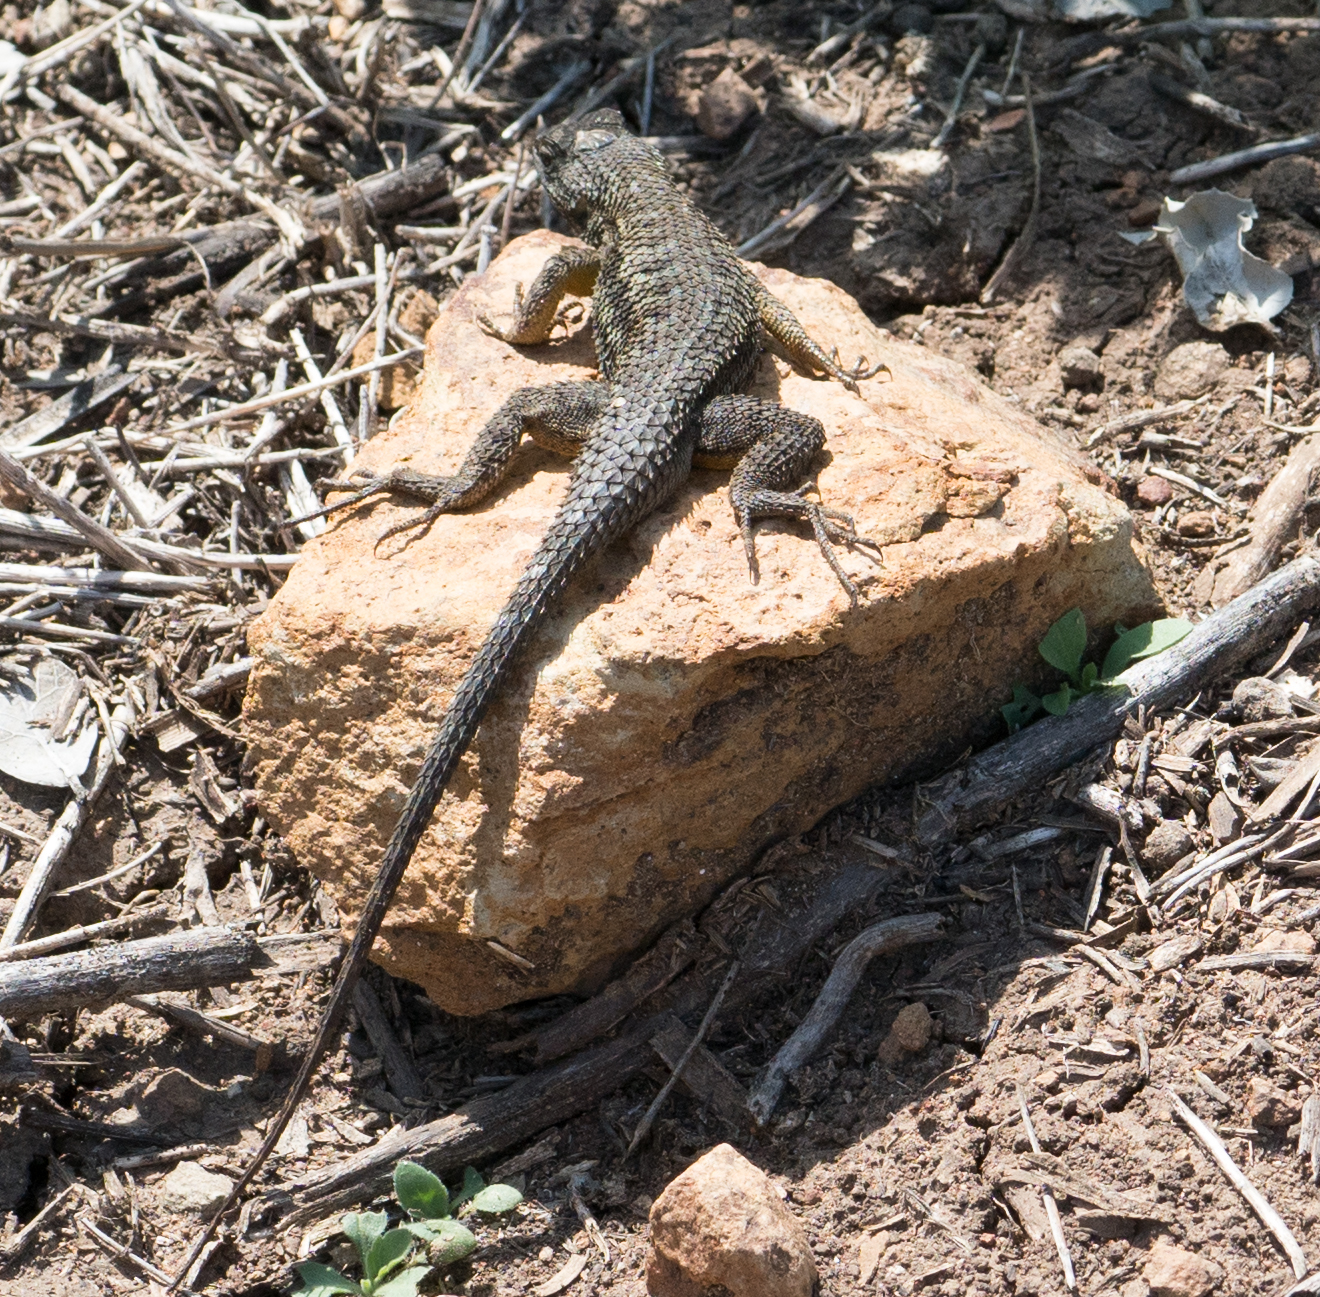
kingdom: Animalia
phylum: Chordata
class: Squamata
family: Phrynosomatidae
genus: Sceloporus
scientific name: Sceloporus occidentalis
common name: Western fence lizard
